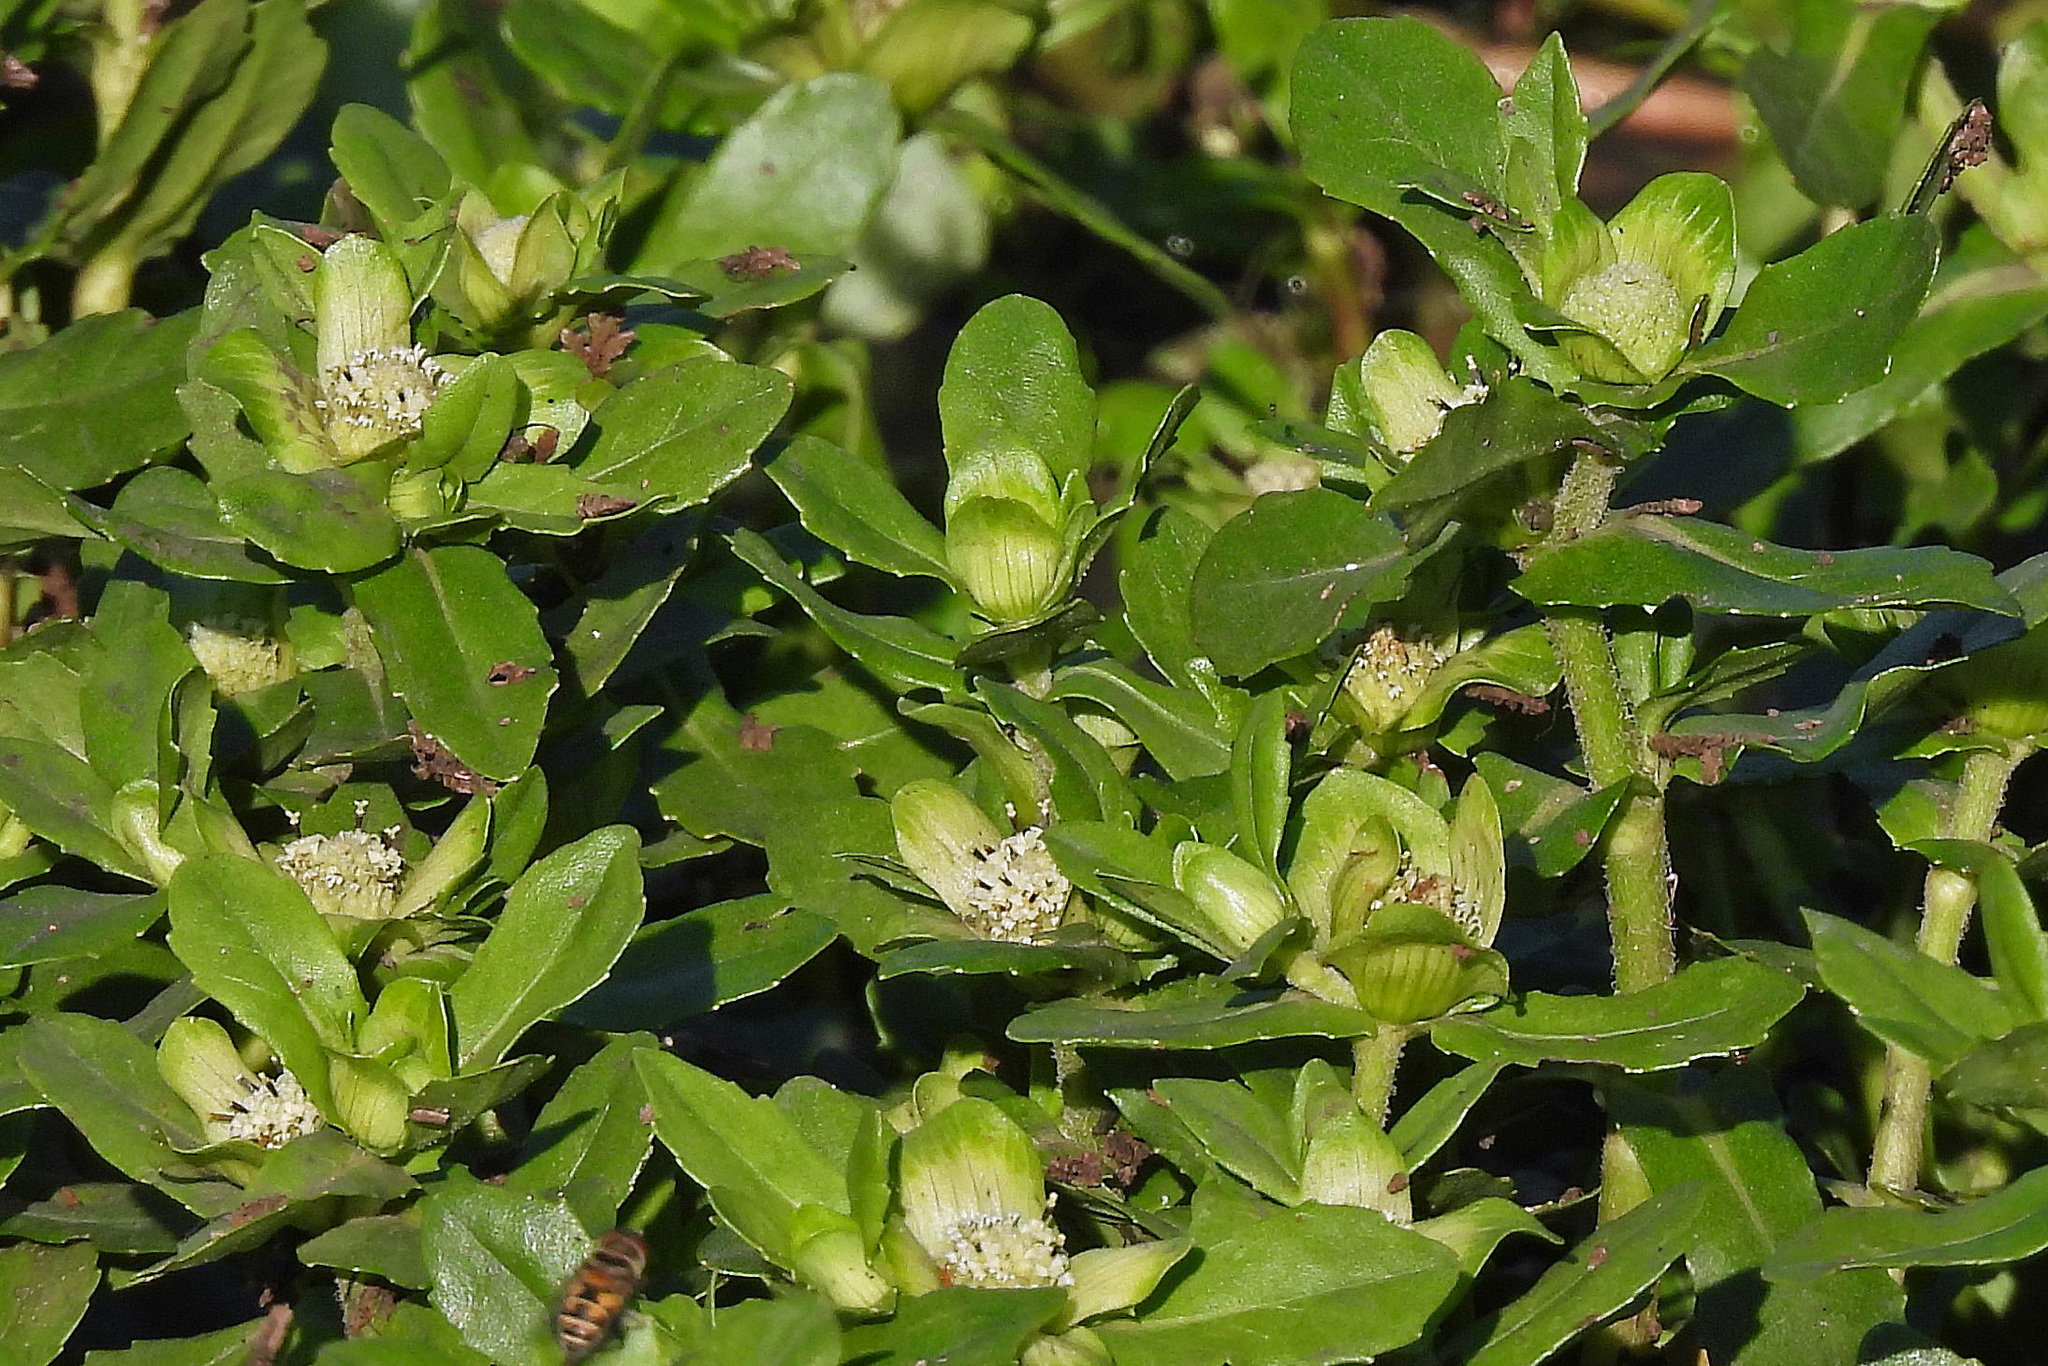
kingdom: Plantae
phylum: Tracheophyta
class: Magnoliopsida
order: Asterales
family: Asteraceae
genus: Enydra
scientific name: Enydra fluctuans
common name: Buffalo spinach
